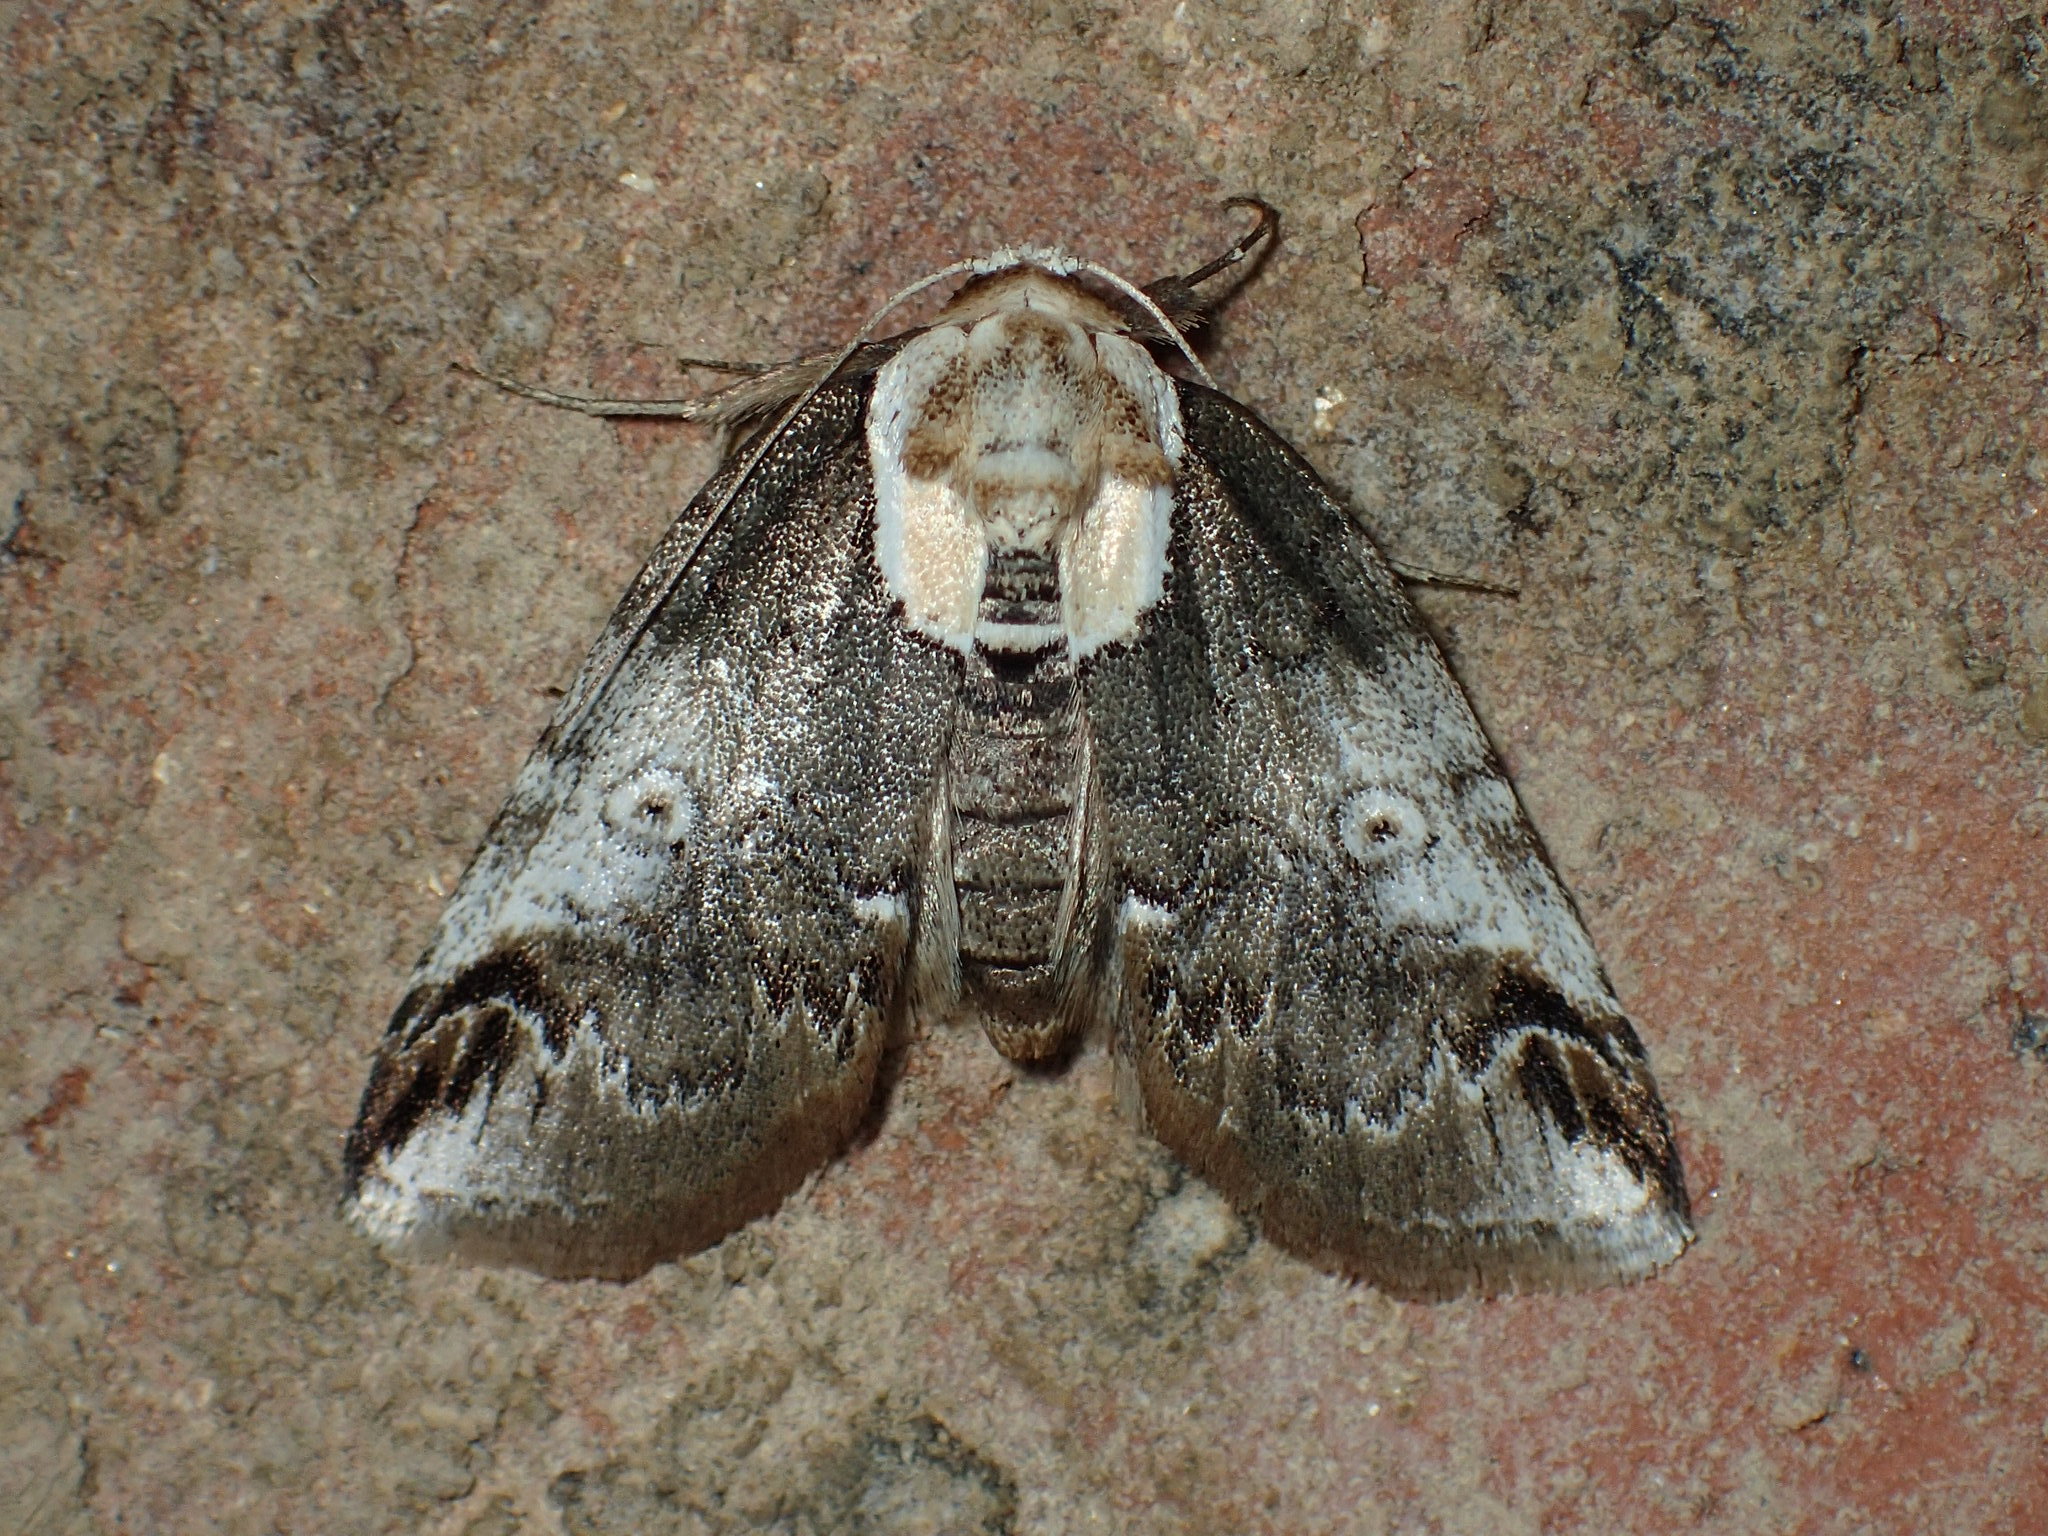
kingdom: Animalia
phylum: Arthropoda
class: Insecta
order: Lepidoptera
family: Nolidae
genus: Baileya
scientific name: Baileya ophthalmica
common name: Eyed baileya moth
